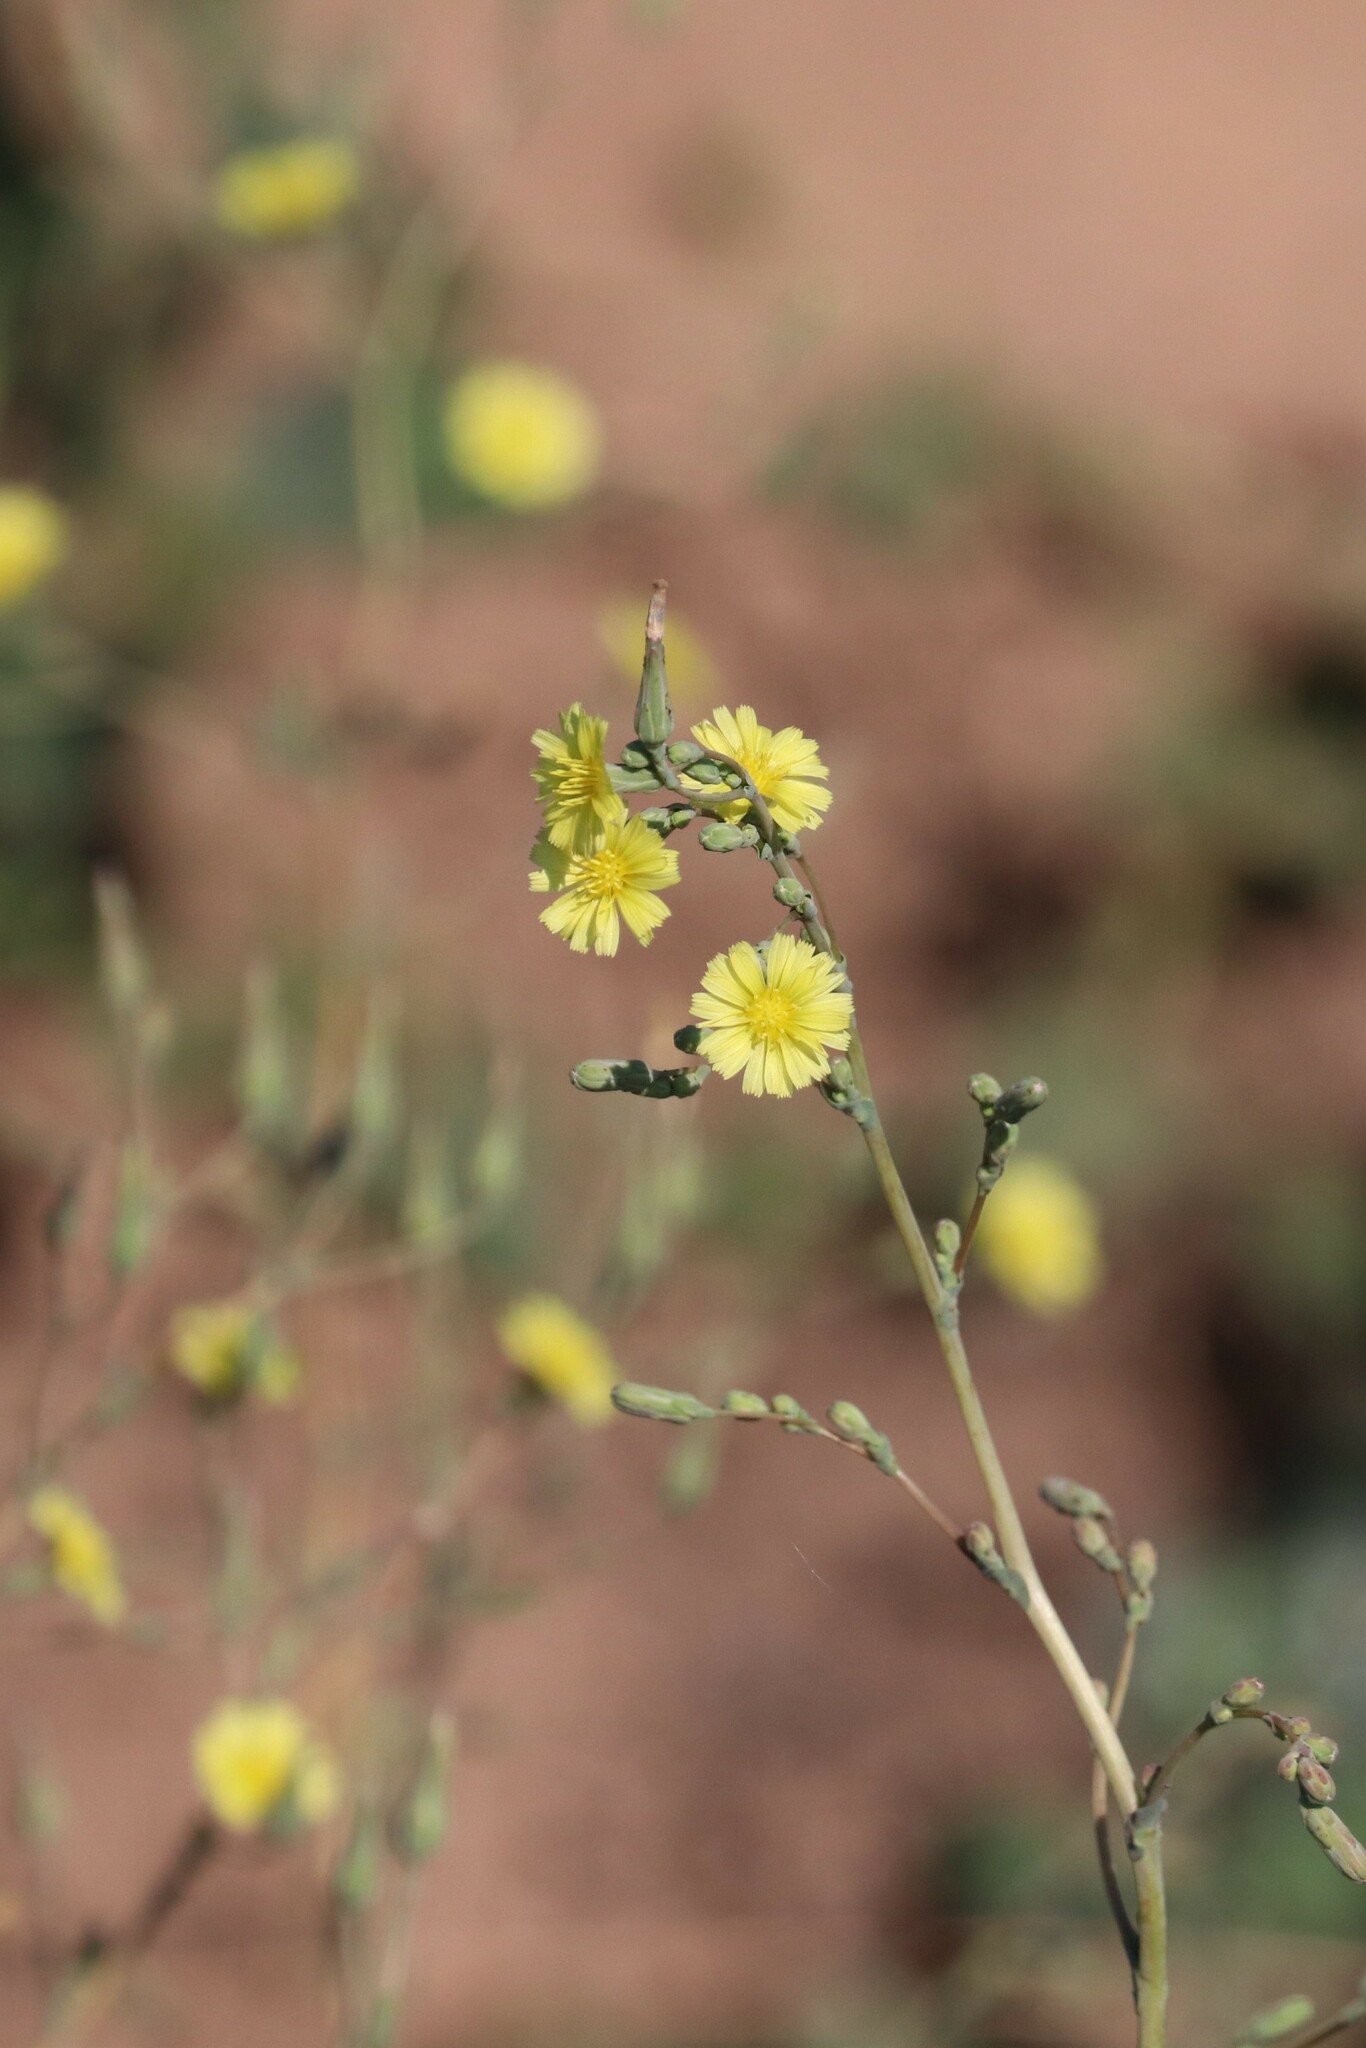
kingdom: Plantae
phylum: Tracheophyta
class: Magnoliopsida
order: Asterales
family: Asteraceae
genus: Lactuca
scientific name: Lactuca serriola
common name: Prickly lettuce
